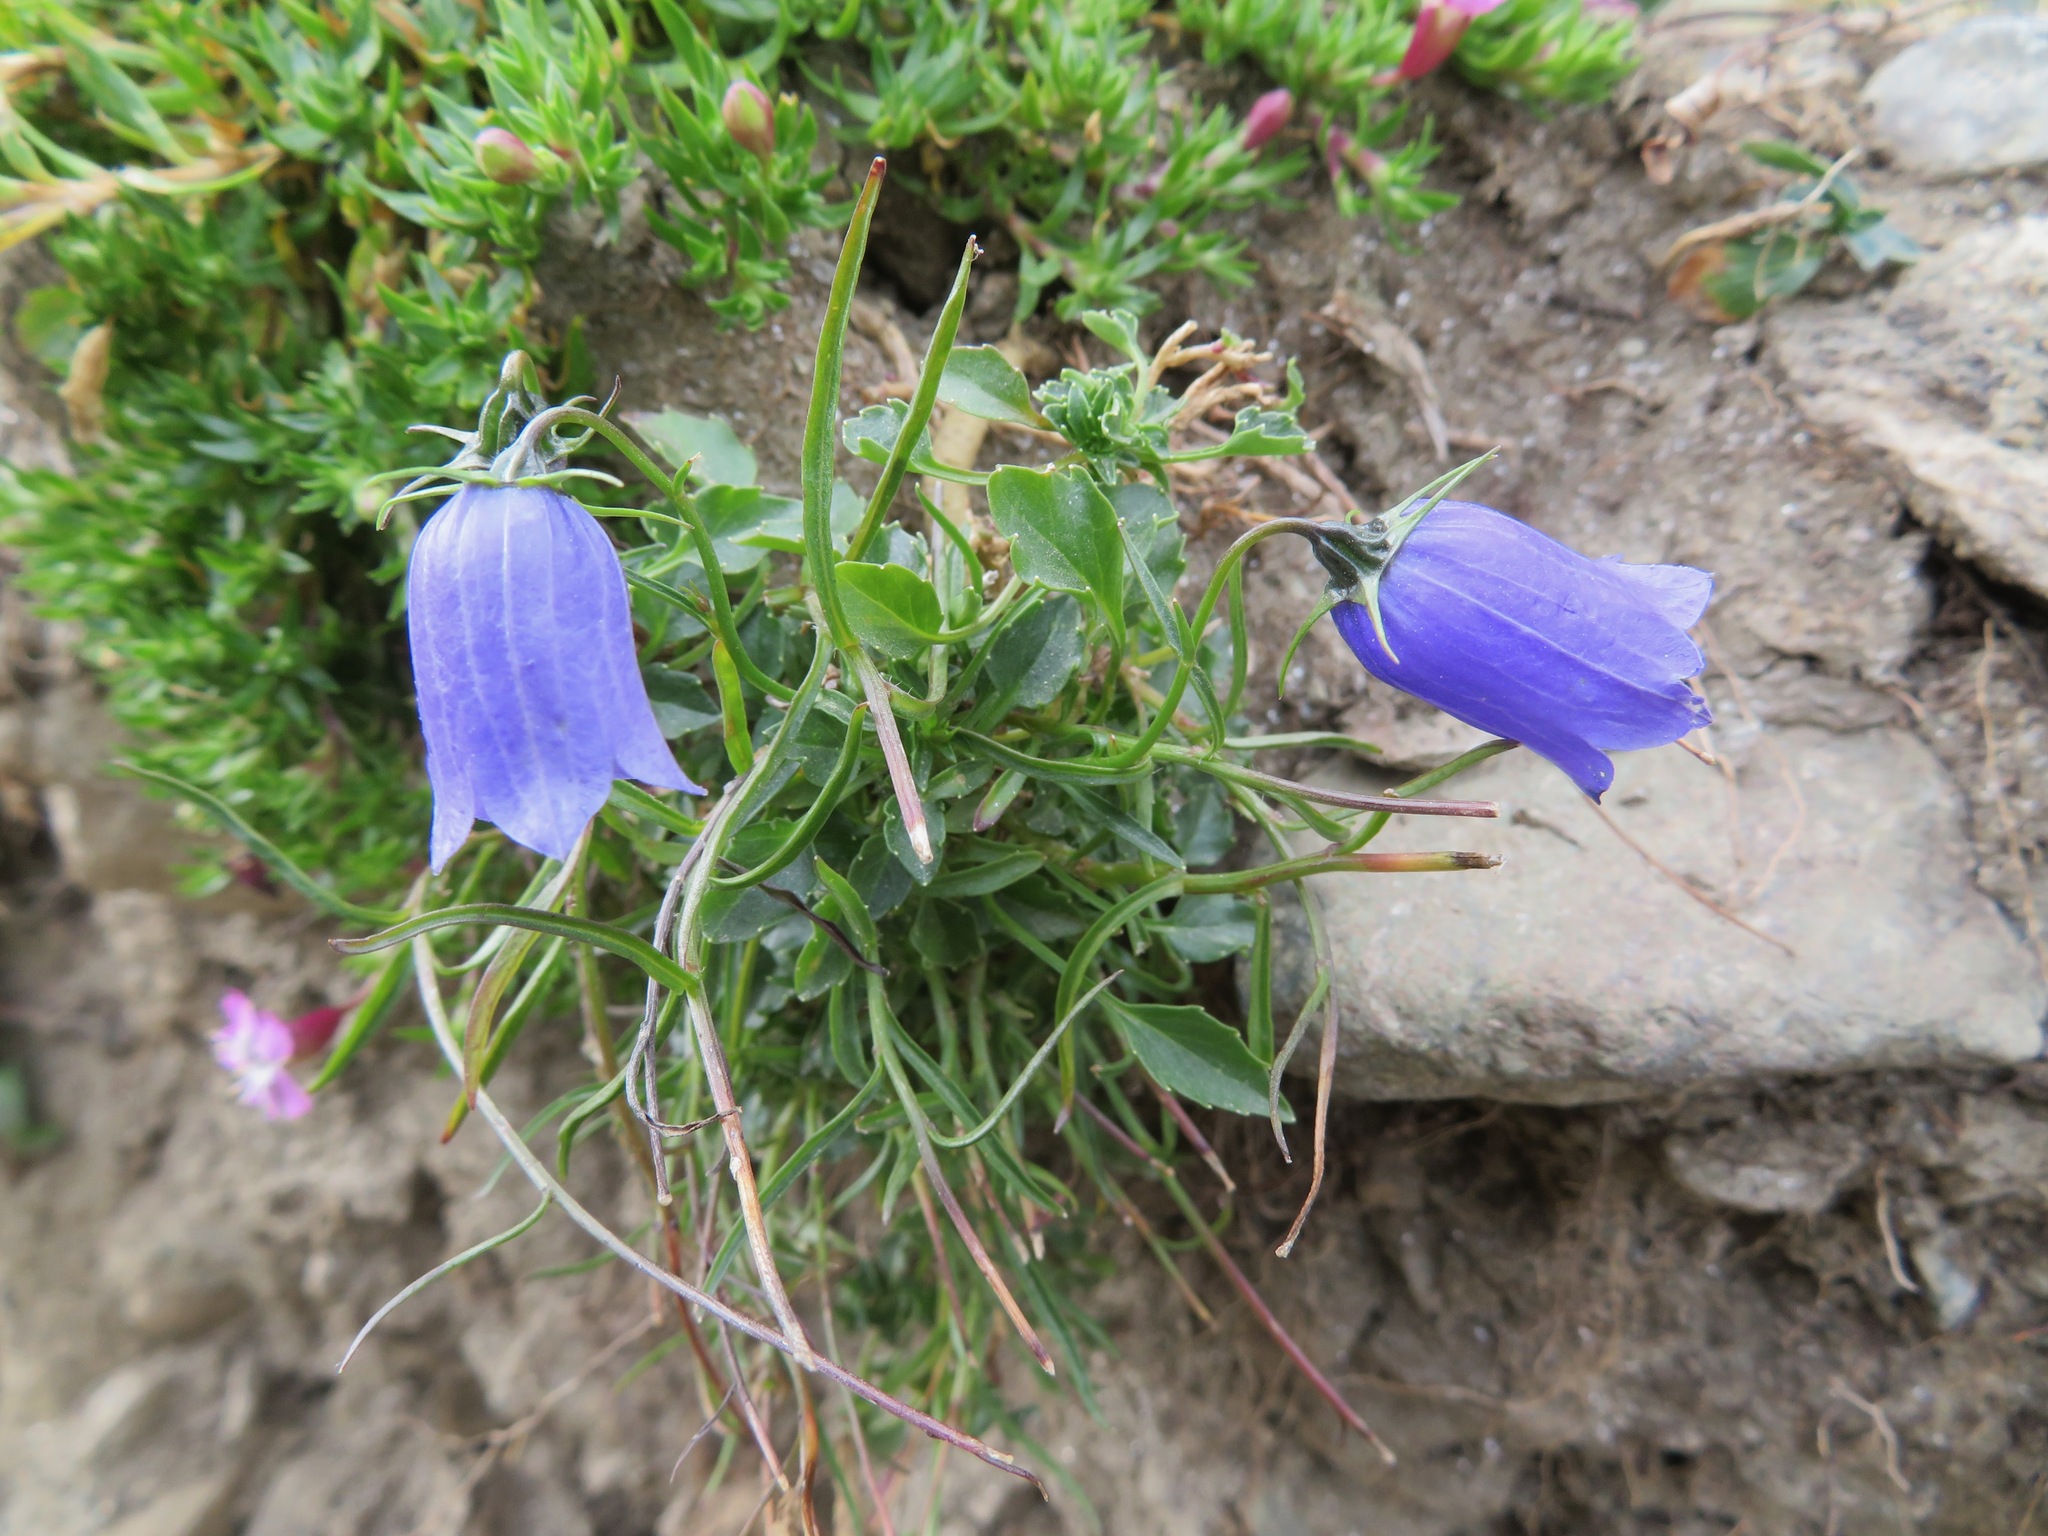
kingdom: Plantae
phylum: Tracheophyta
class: Magnoliopsida
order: Asterales
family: Campanulaceae
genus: Campanula
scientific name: Campanula cochleariifolia
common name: Fairies'-thimbles
